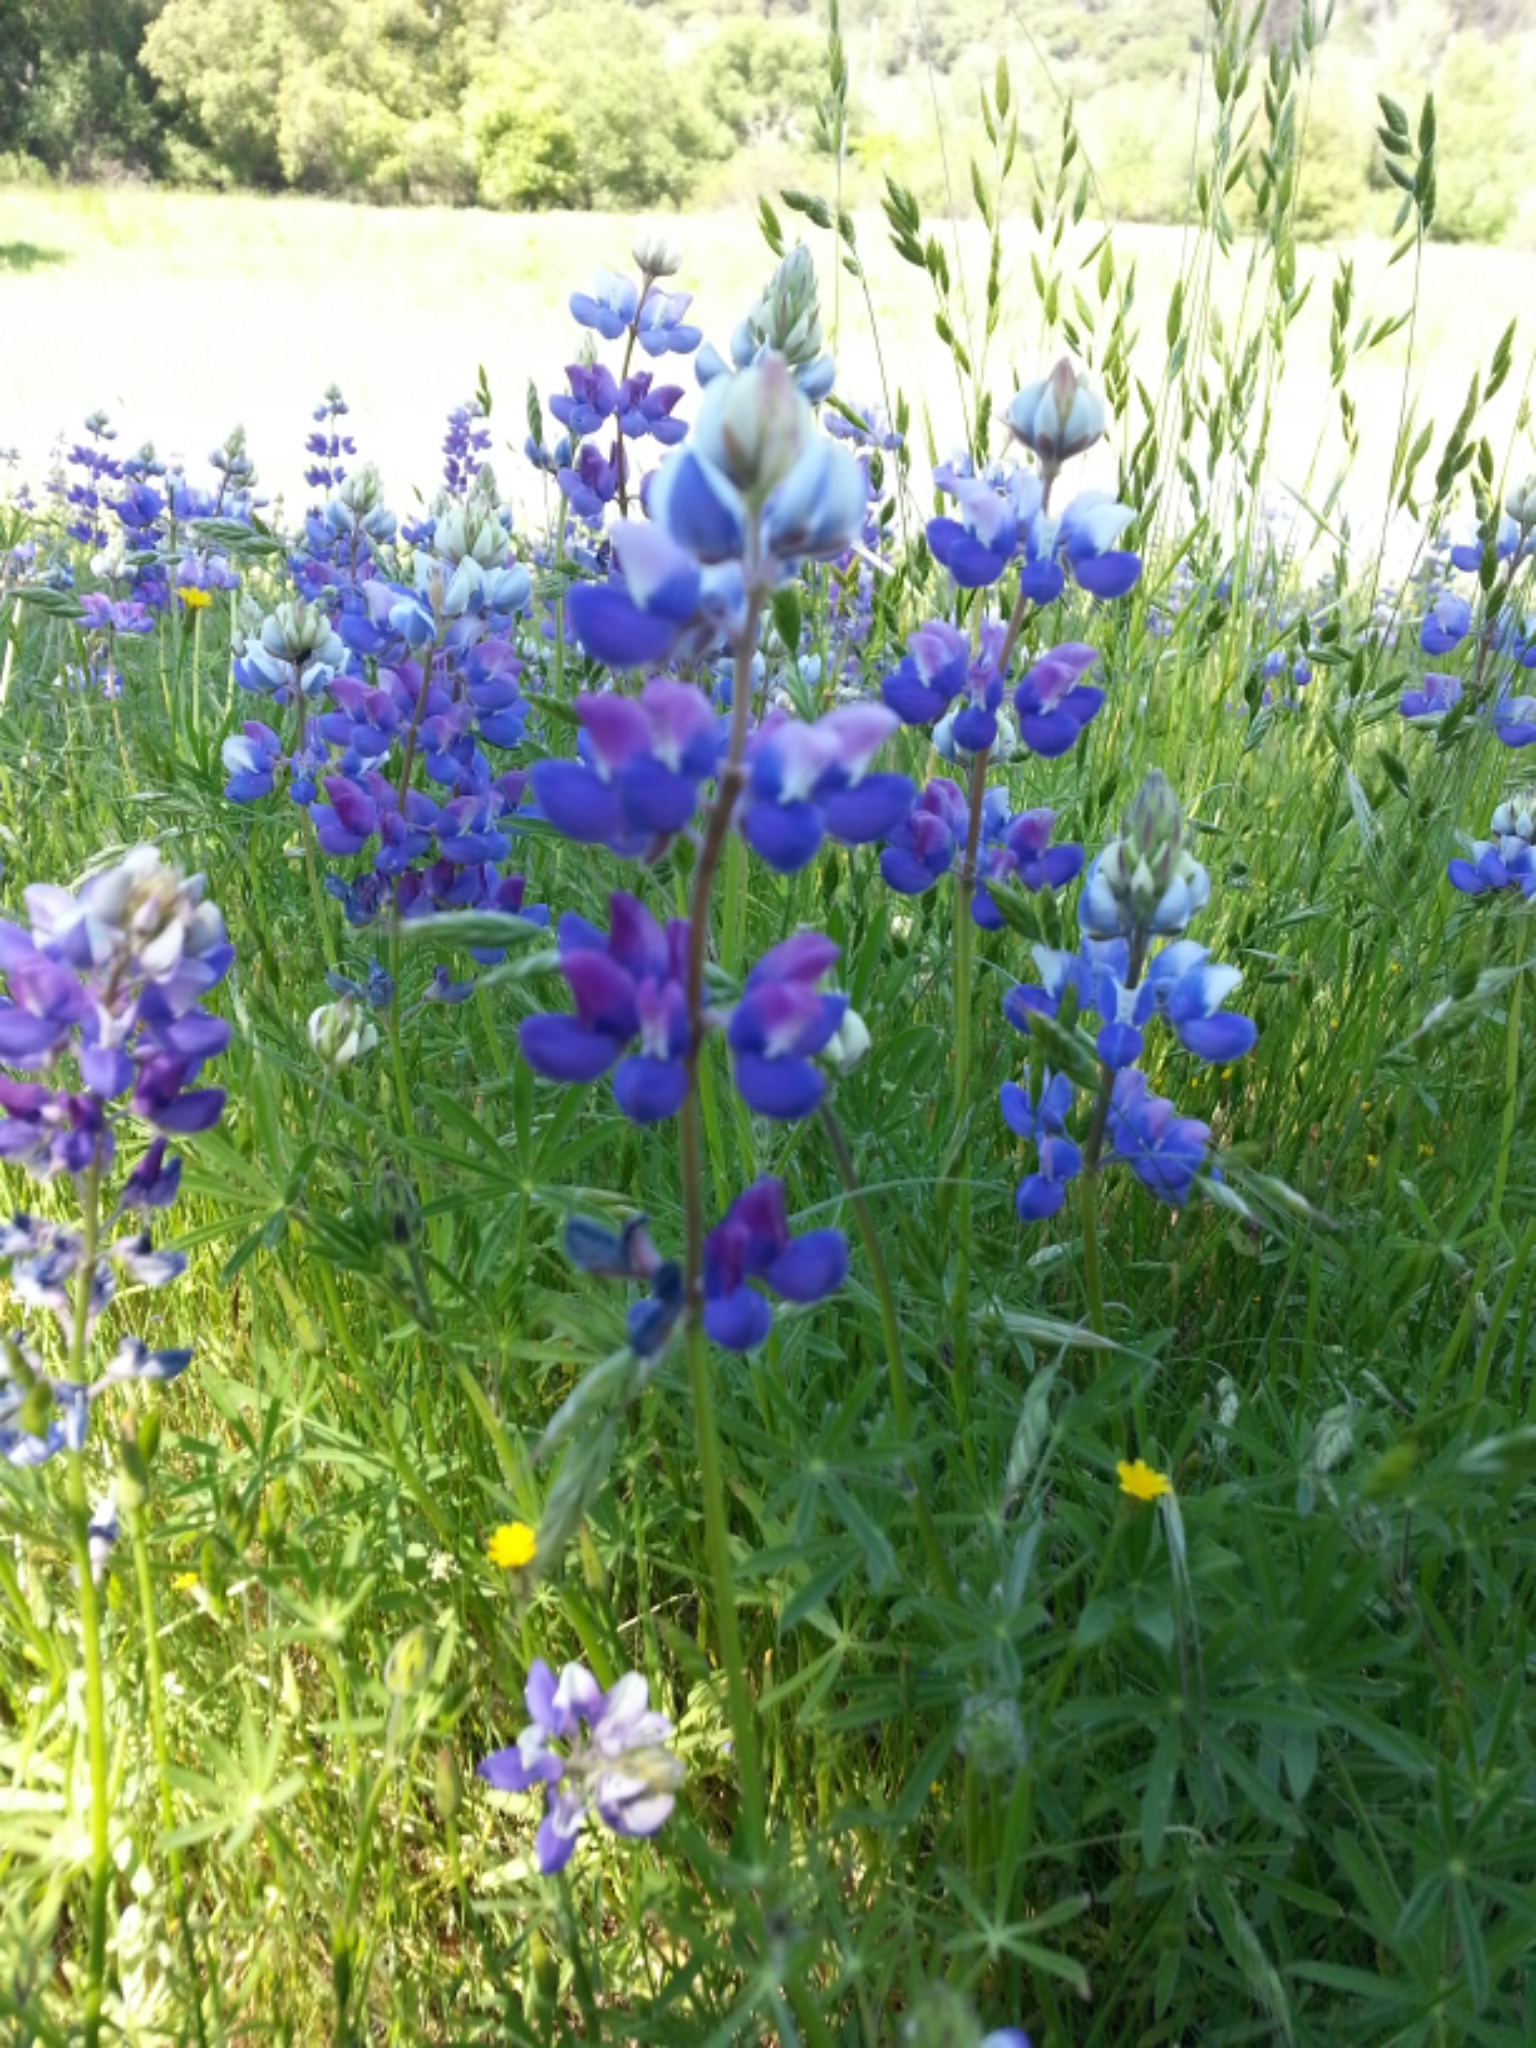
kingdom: Plantae
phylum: Tracheophyta
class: Magnoliopsida
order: Fabales
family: Fabaceae
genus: Lupinus
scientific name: Lupinus nanus
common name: Orean blue lupin
